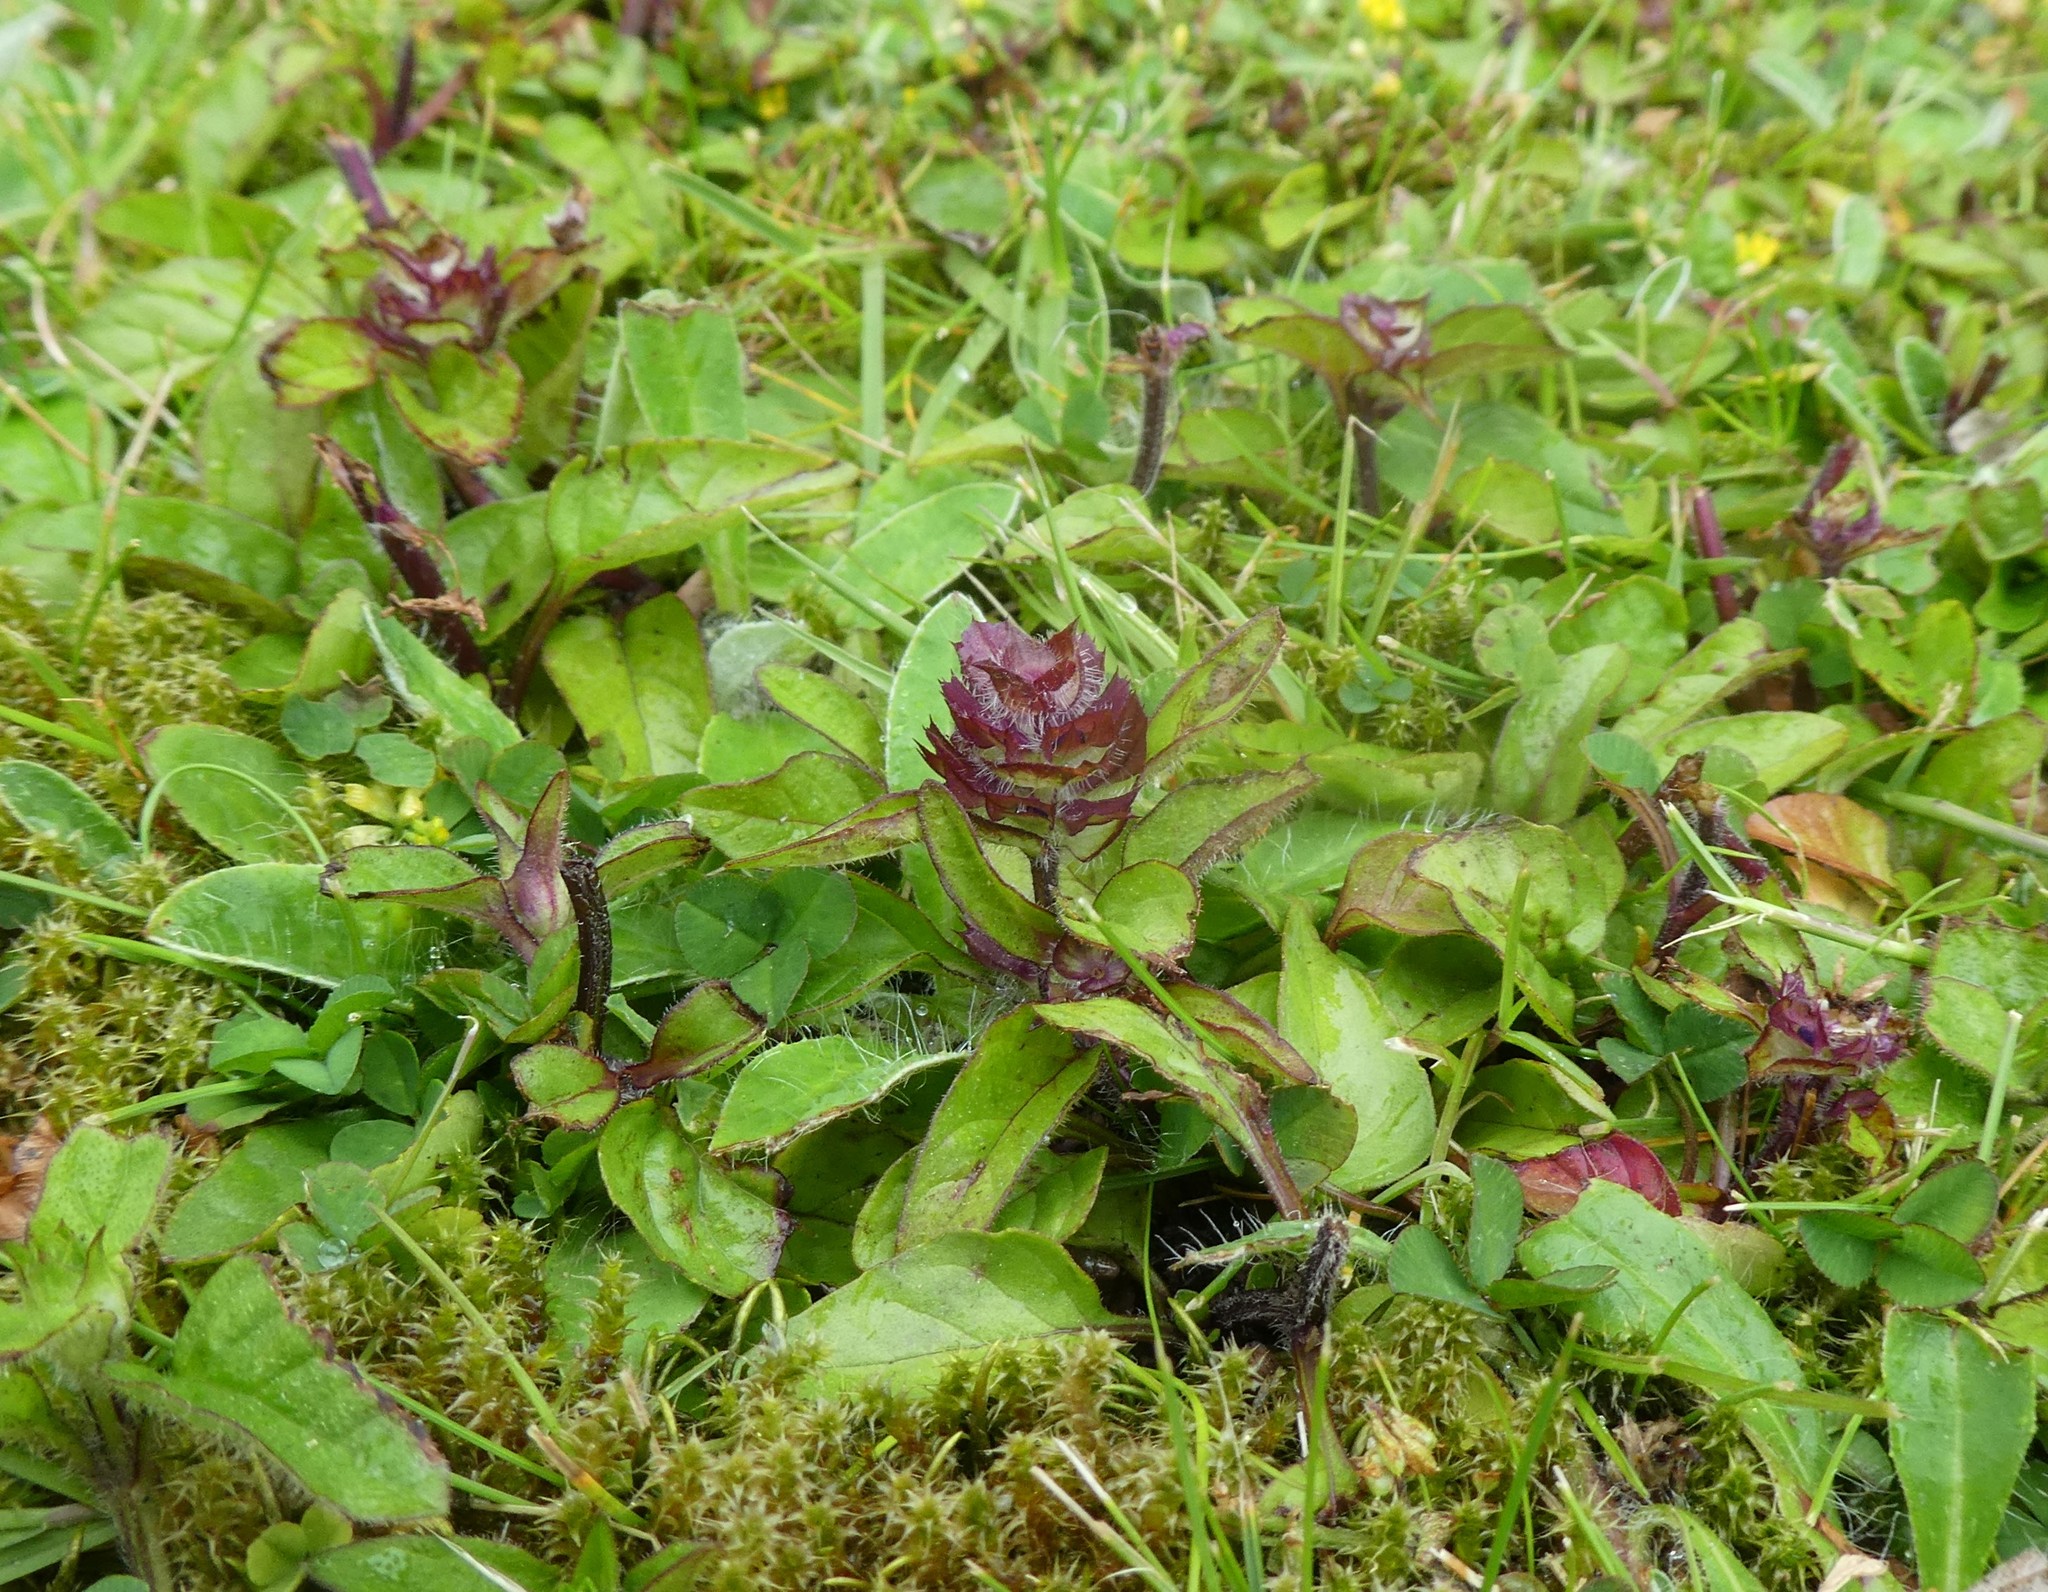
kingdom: Plantae
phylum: Tracheophyta
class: Magnoliopsida
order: Lamiales
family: Lamiaceae
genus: Prunella
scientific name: Prunella vulgaris
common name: Heal-all
